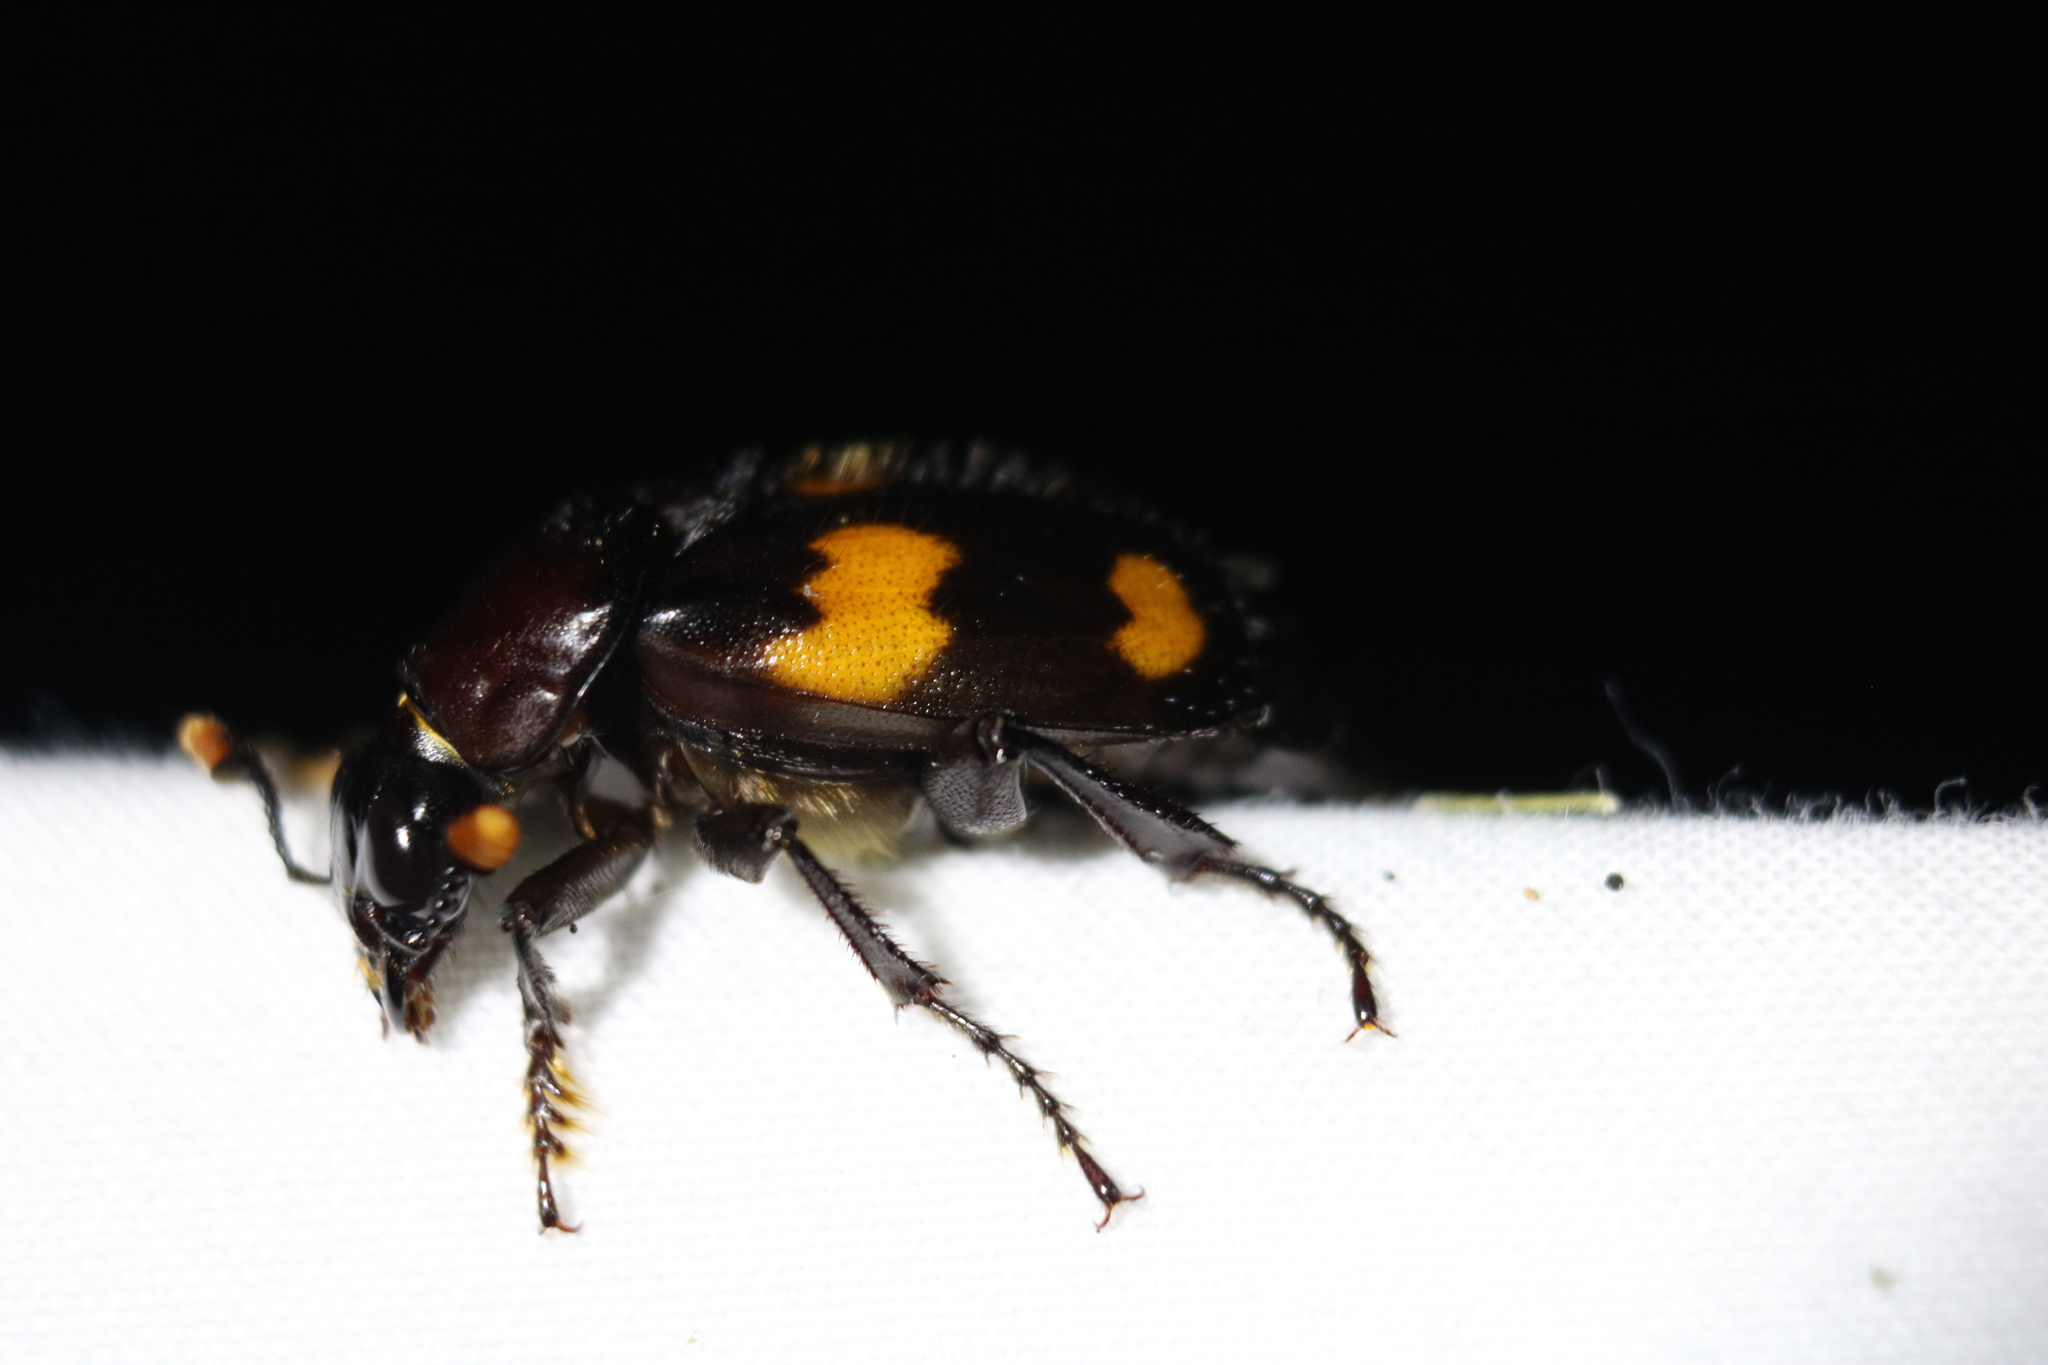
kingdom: Animalia
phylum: Arthropoda
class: Insecta
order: Coleoptera
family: Staphylinidae
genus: Nicrophorus
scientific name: Nicrophorus orbicollis
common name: Roundneck sexton beetle
